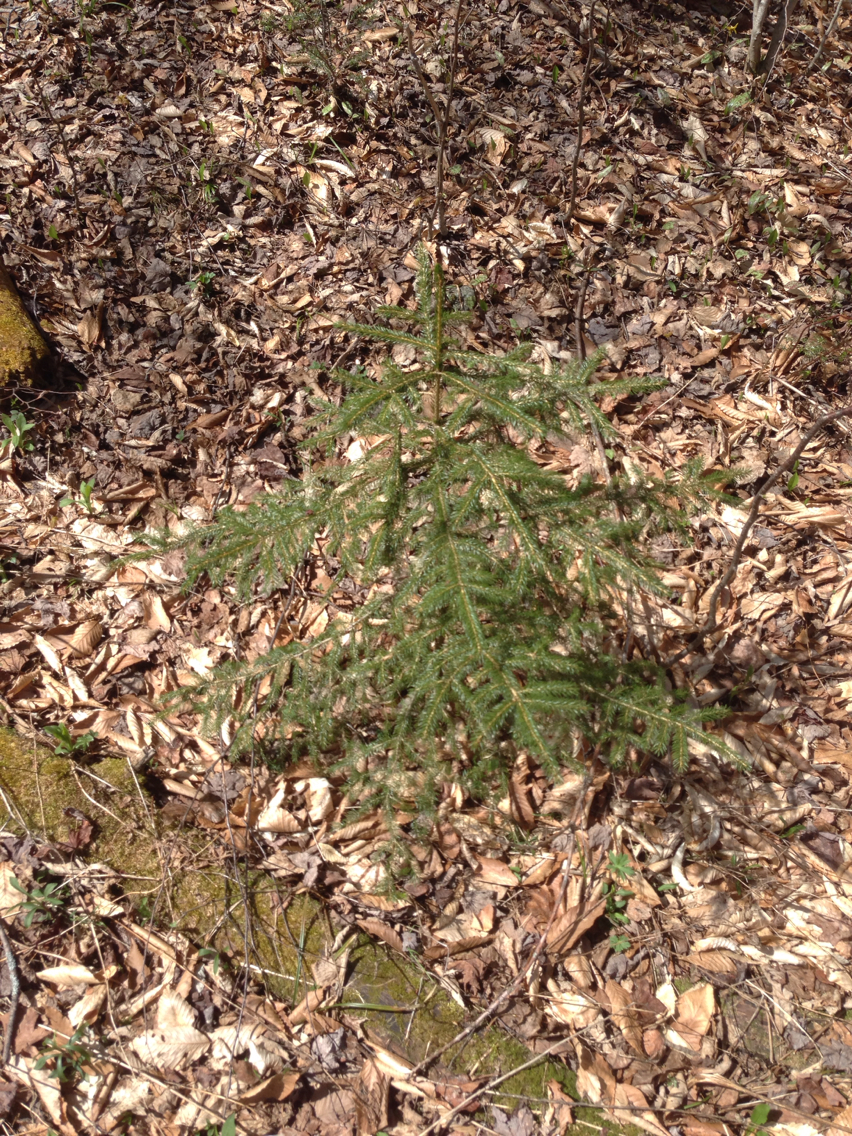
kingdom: Plantae
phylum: Tracheophyta
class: Pinopsida
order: Pinales
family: Pinaceae
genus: Picea
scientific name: Picea rubens
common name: Red spruce
